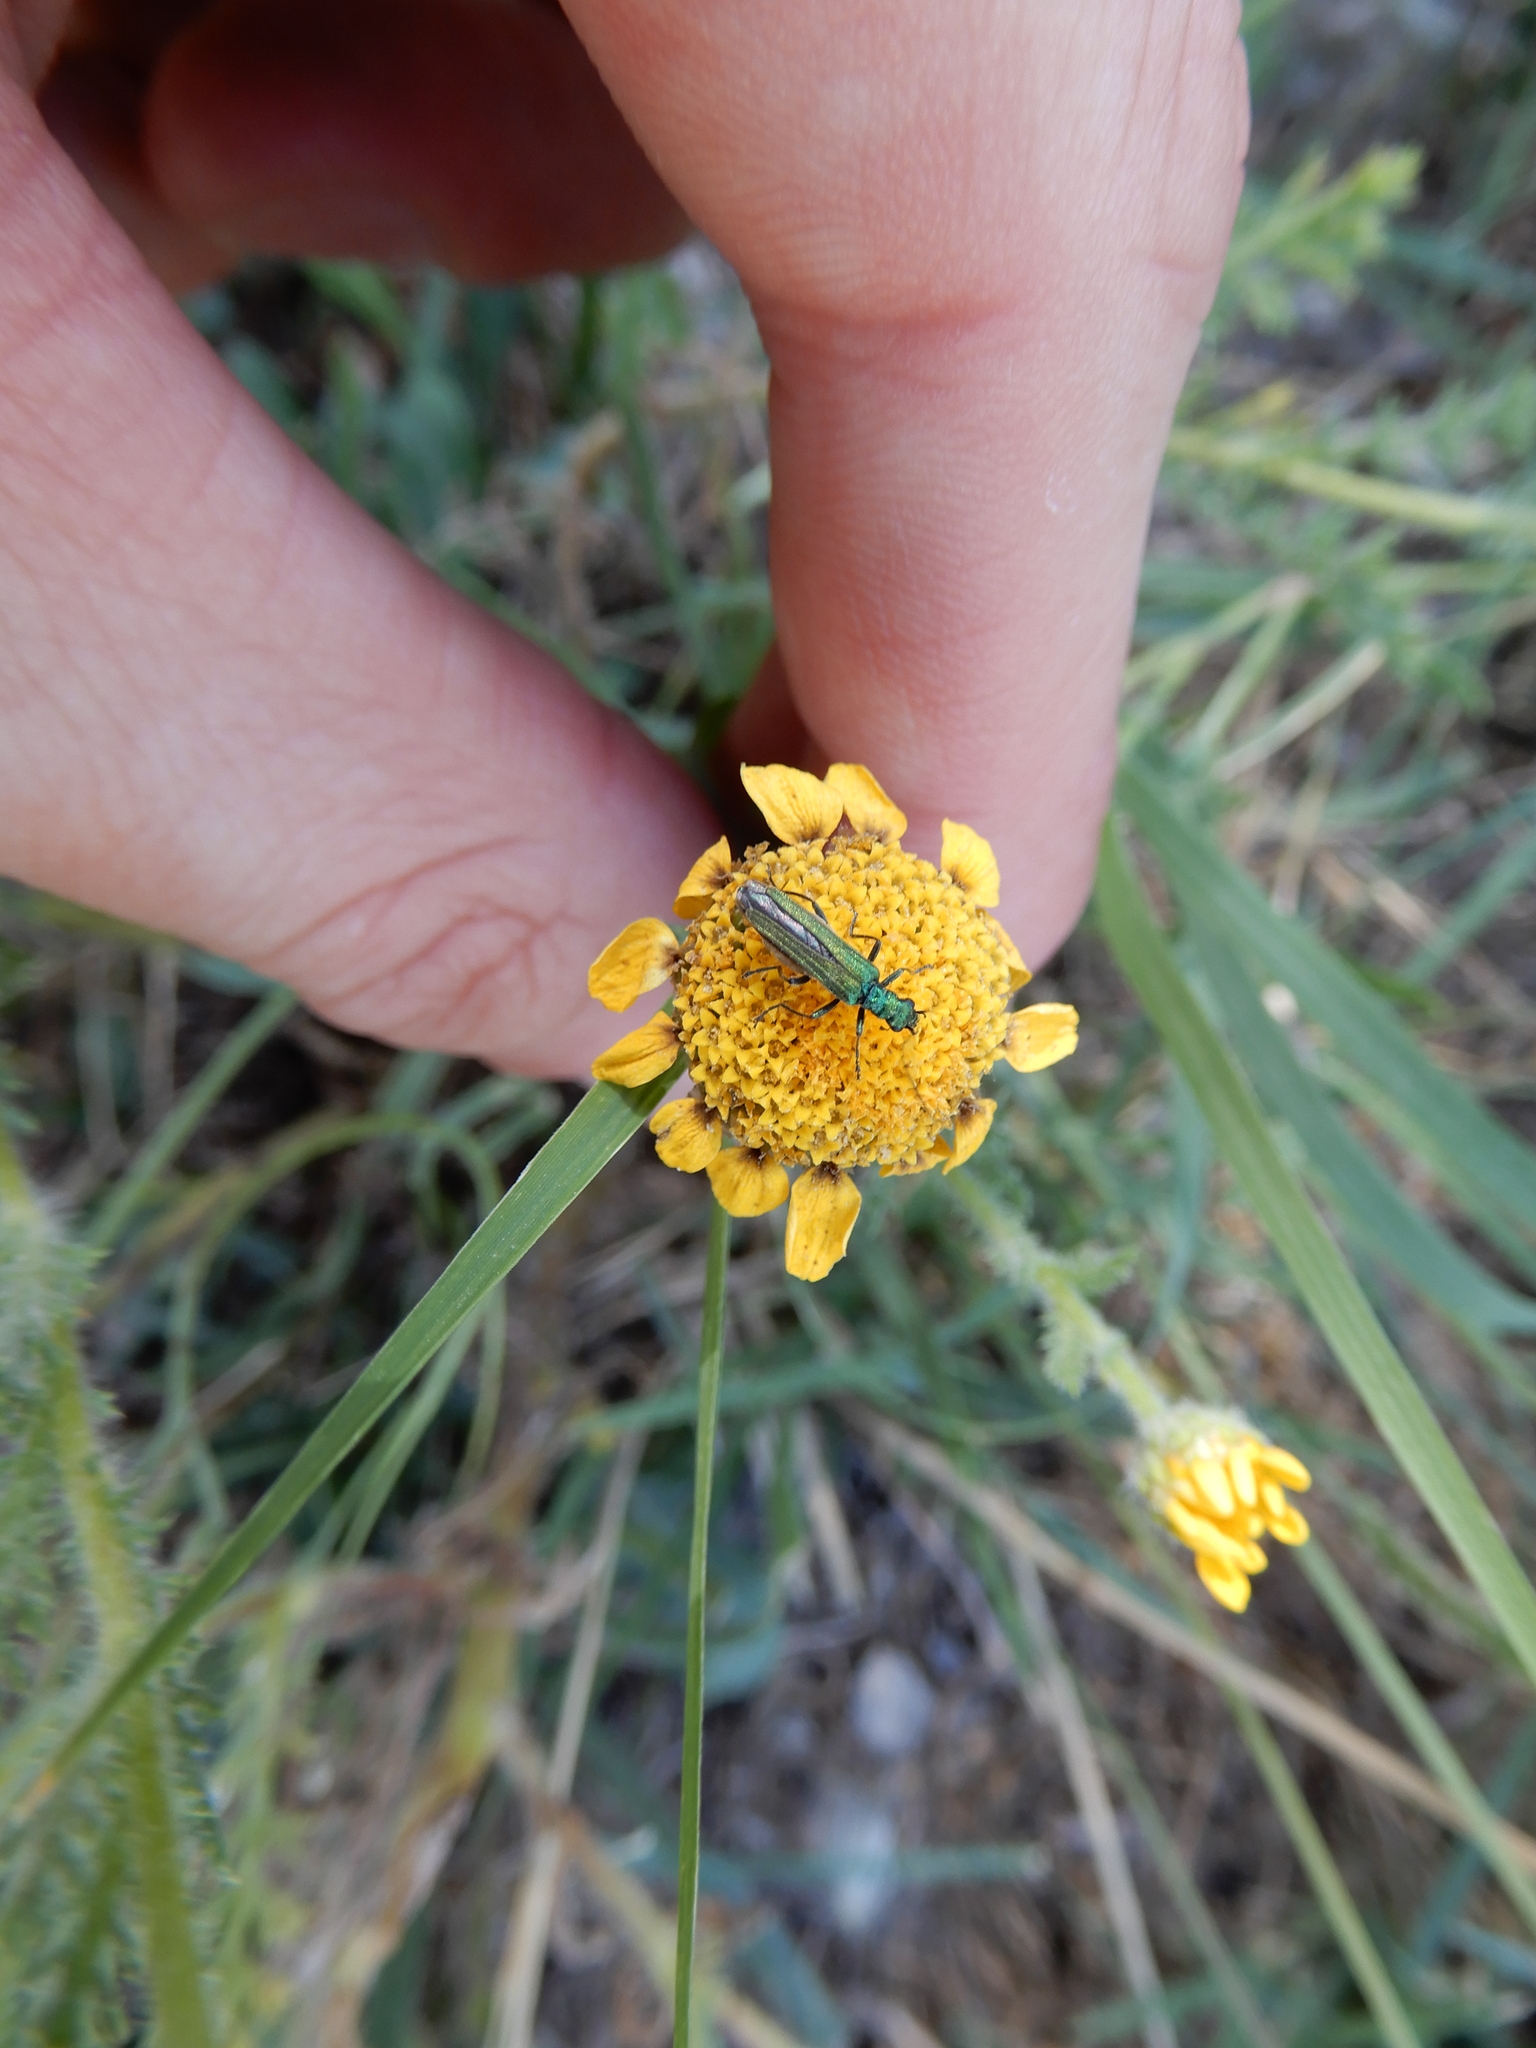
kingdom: Animalia
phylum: Arthropoda
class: Insecta
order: Coleoptera
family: Oedemeridae
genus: Oedemera
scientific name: Oedemera nobilis
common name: Swollen-thighed beetle
